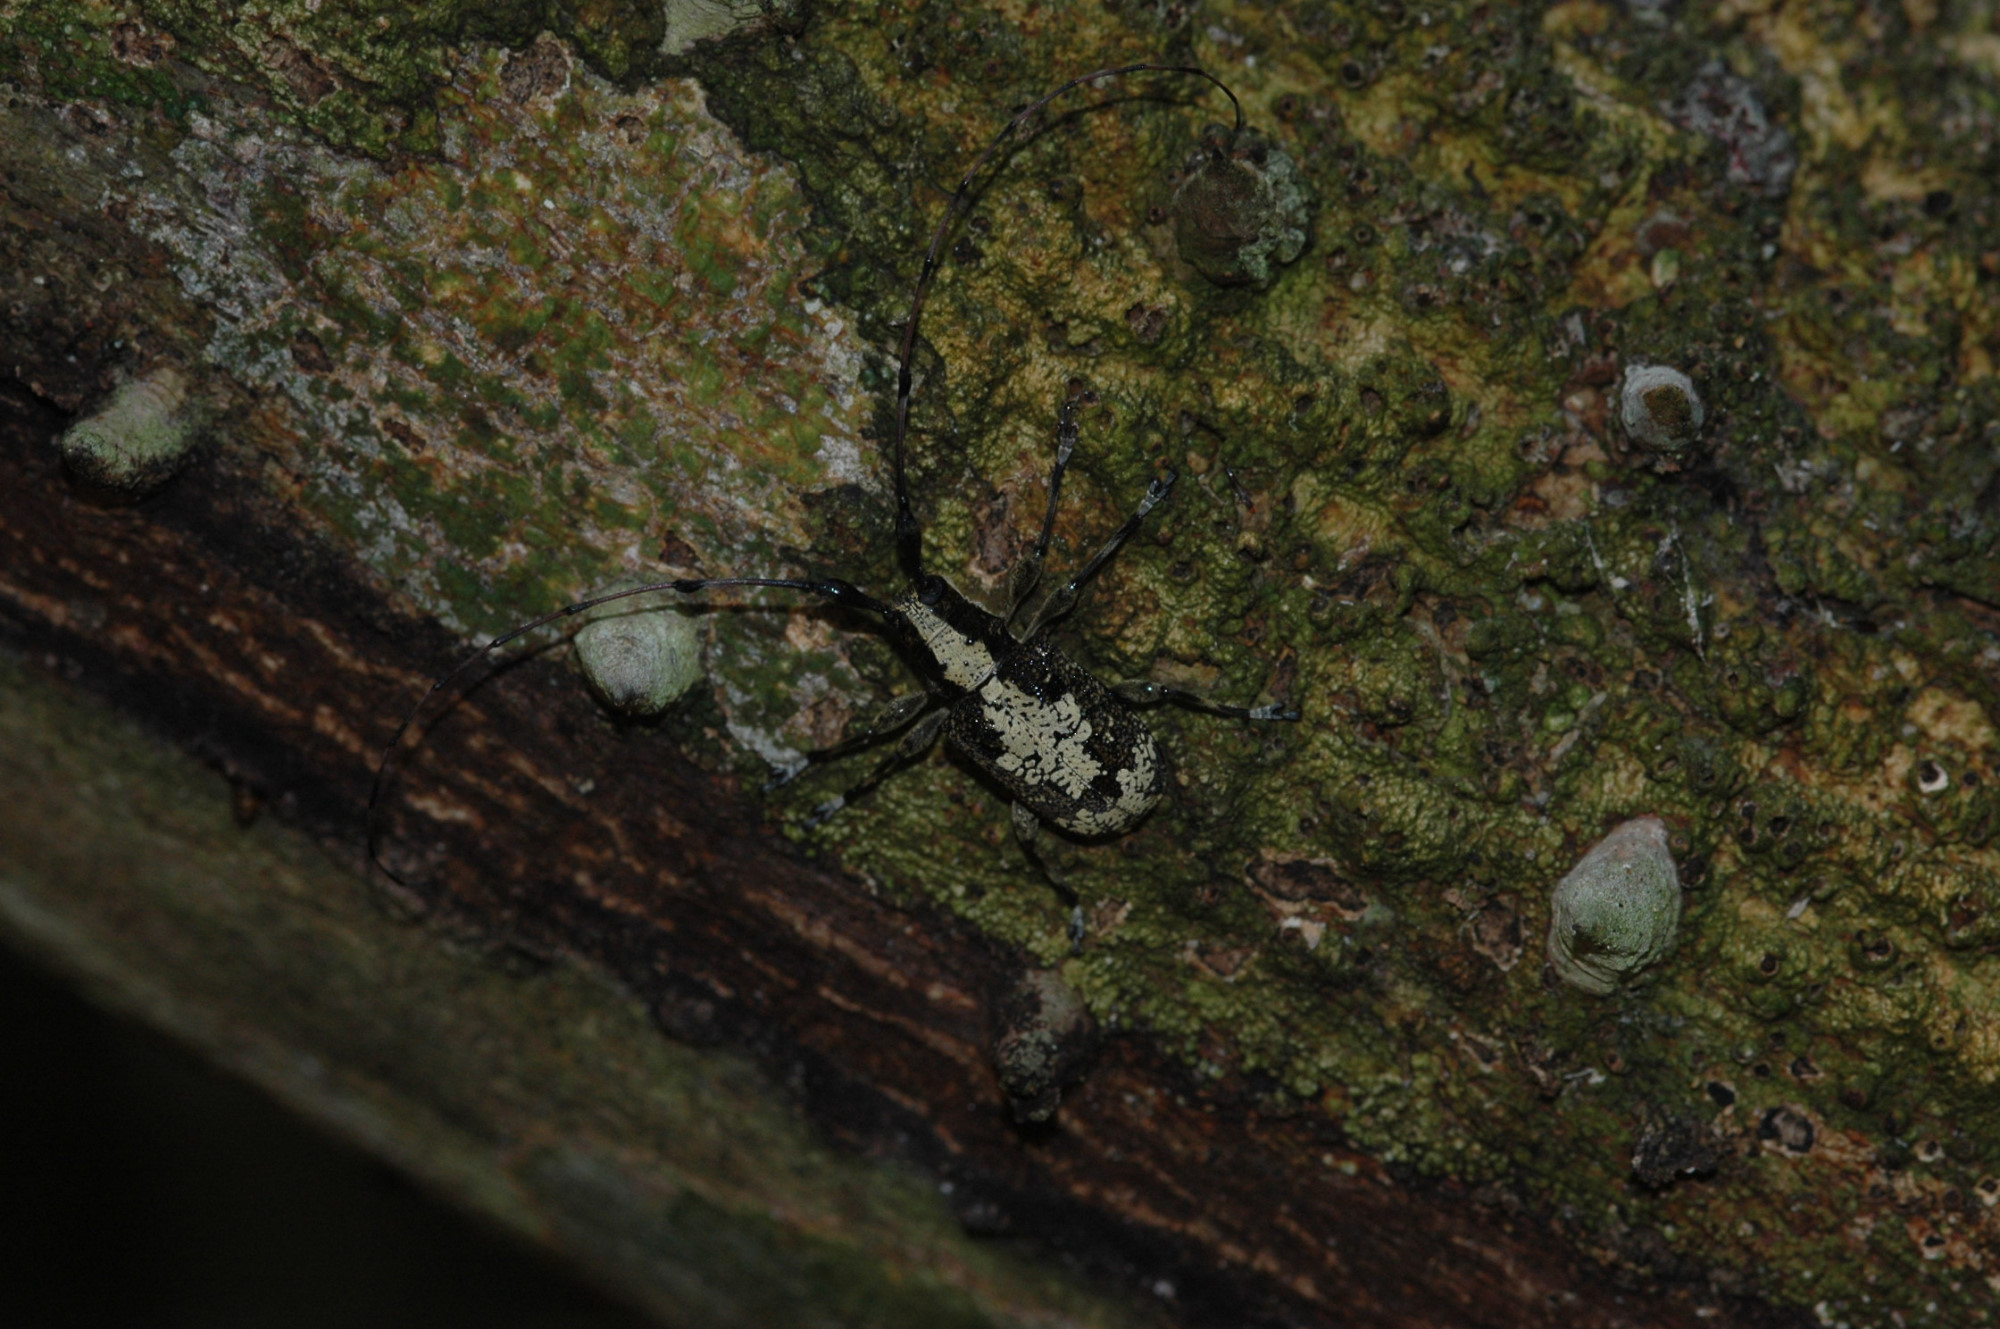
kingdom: Animalia
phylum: Arthropoda
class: Insecta
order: Coleoptera
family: Cerambycidae
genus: Caciomorpha
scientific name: Caciomorpha palliata
